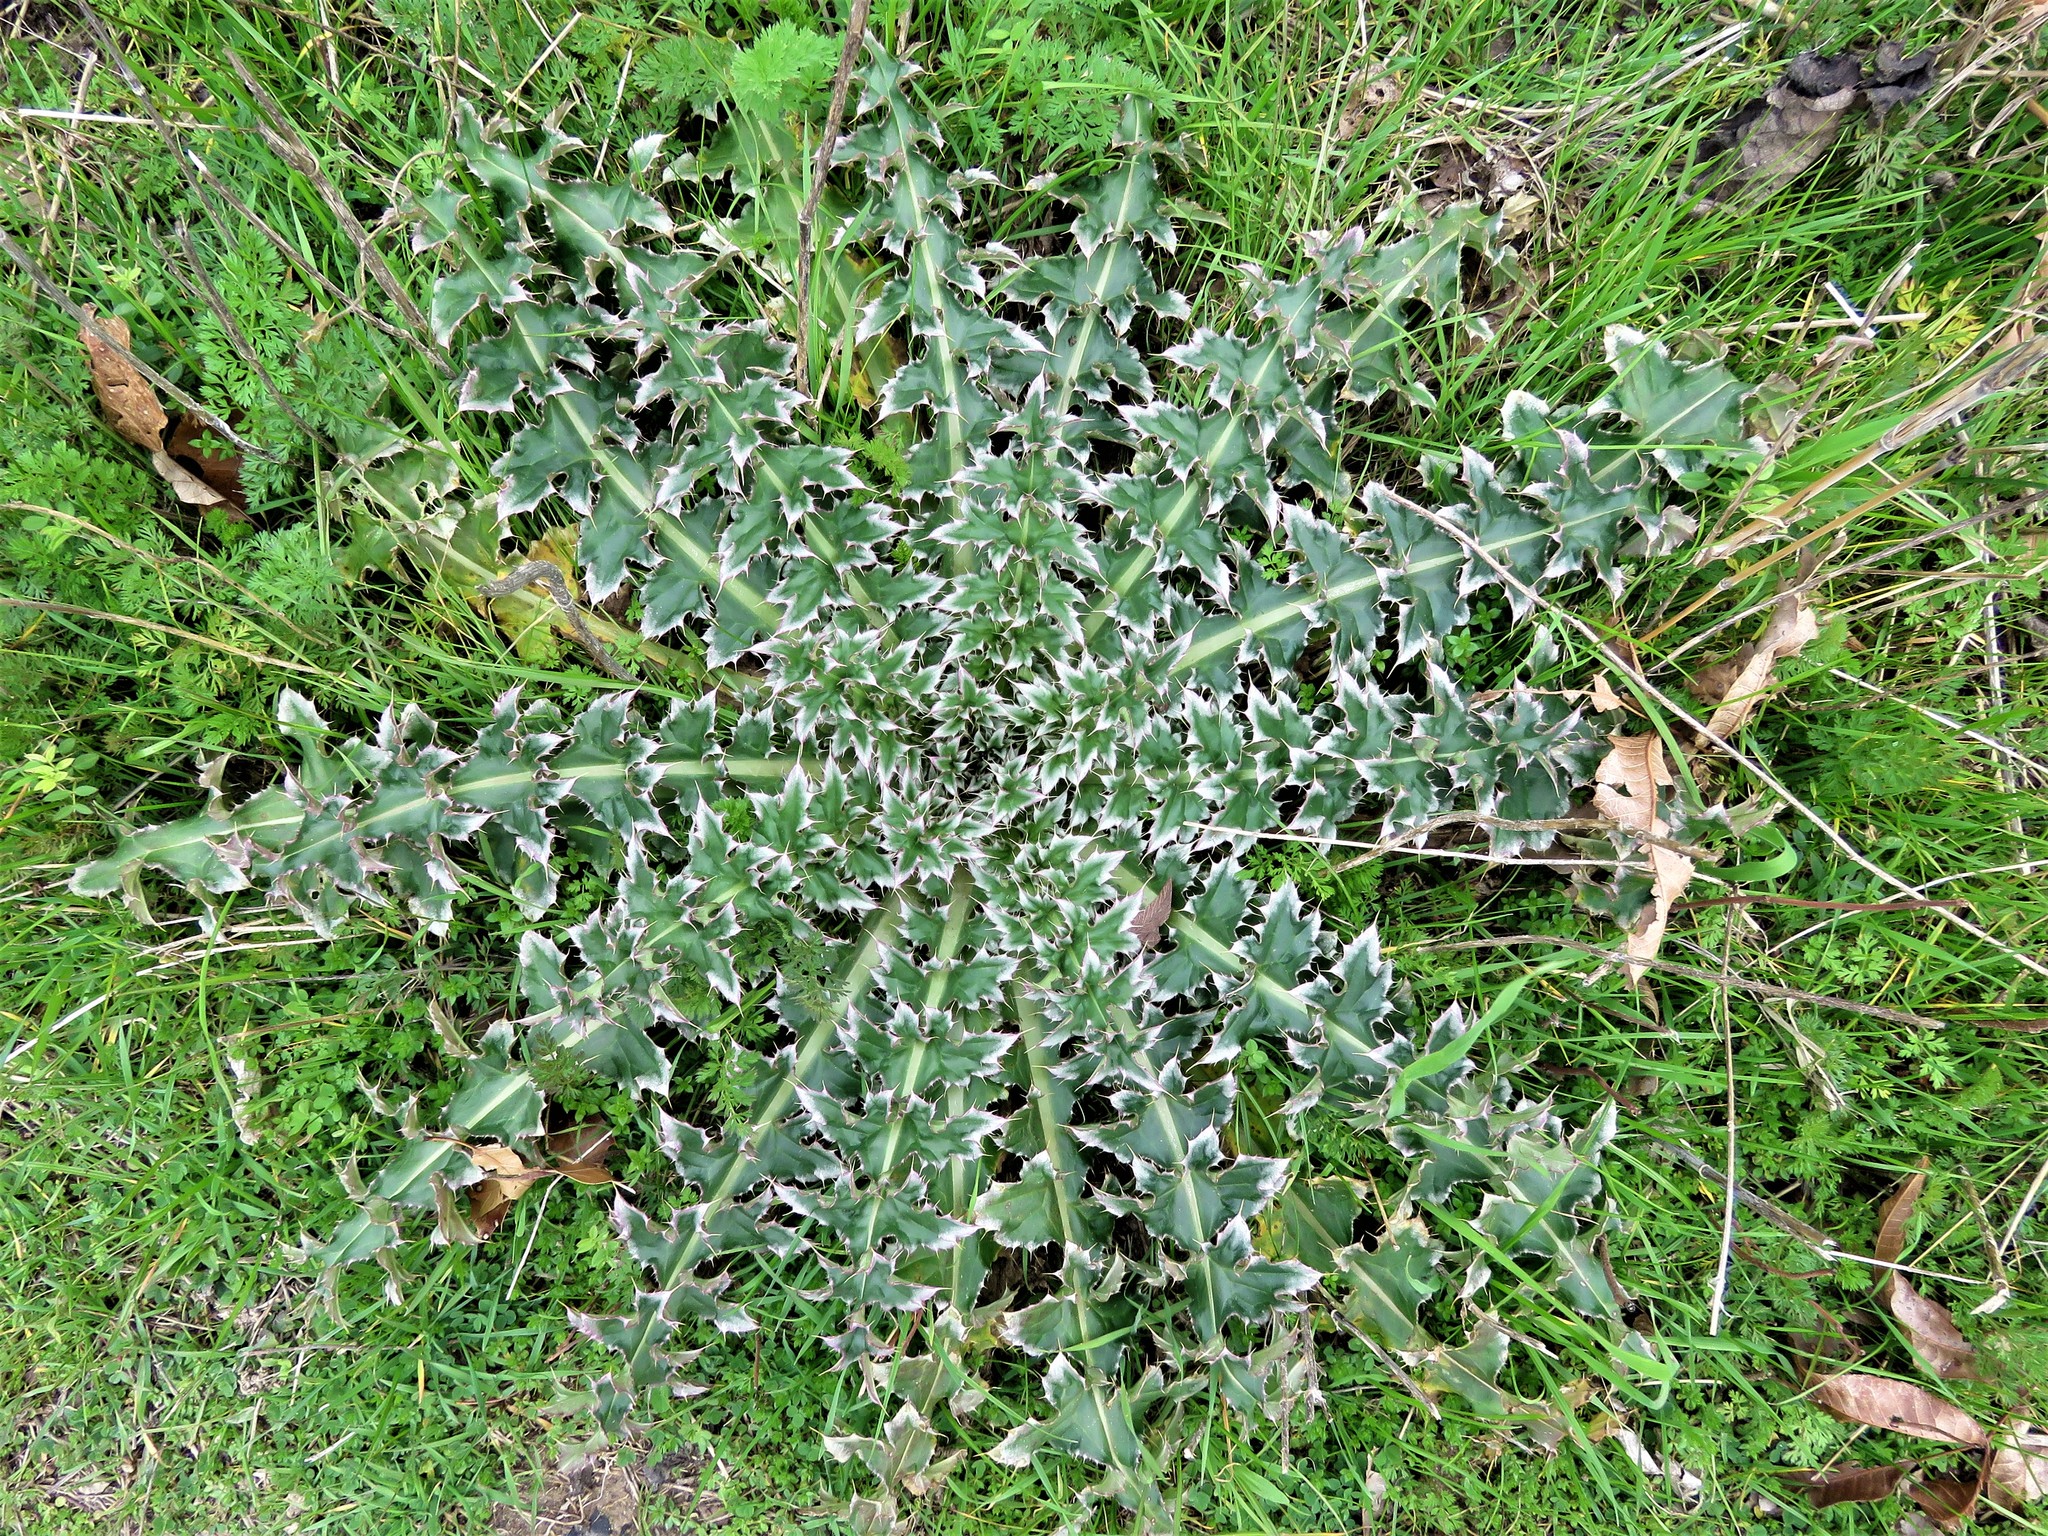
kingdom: Plantae
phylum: Tracheophyta
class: Magnoliopsida
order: Asterales
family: Asteraceae
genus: Carduus
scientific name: Carduus nutans
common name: Musk thistle
